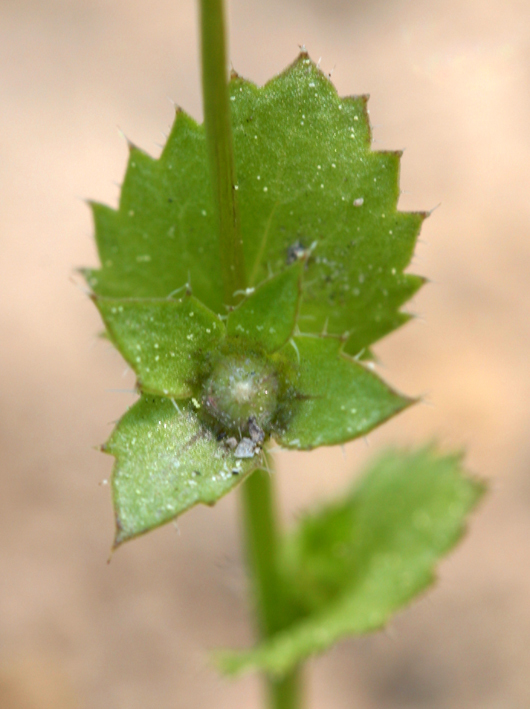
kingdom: Plantae
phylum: Tracheophyta
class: Magnoliopsida
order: Asterales
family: Campanulaceae
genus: Heterocodon
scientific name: Heterocodon rariflorum
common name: Rareflower heterocodon
